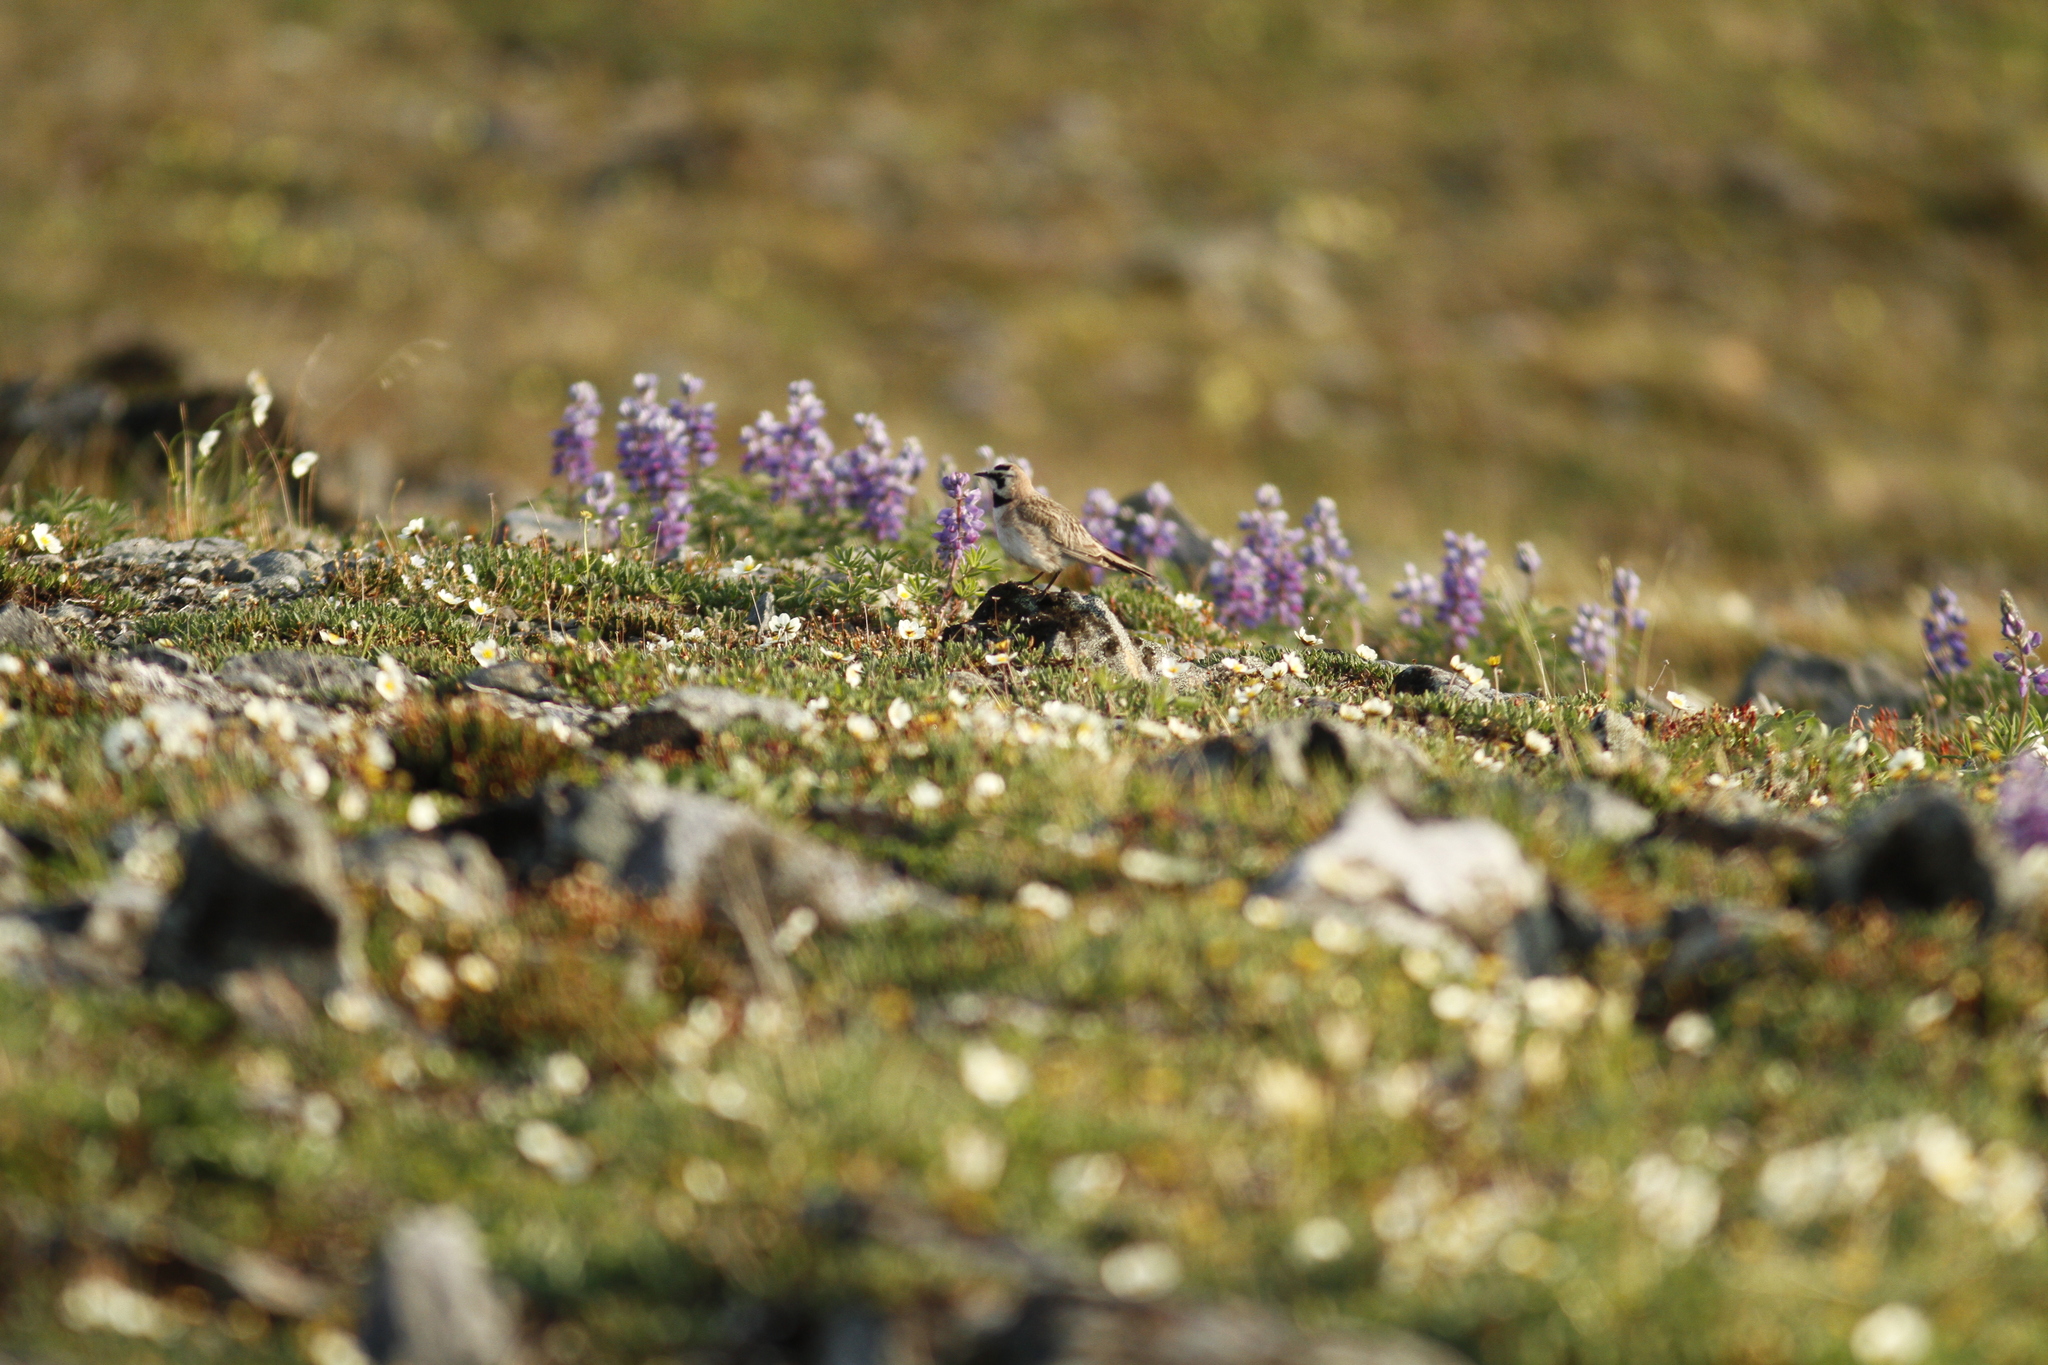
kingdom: Animalia
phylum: Chordata
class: Aves
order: Passeriformes
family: Alaudidae
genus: Eremophila
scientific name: Eremophila alpestris
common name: Horned lark
